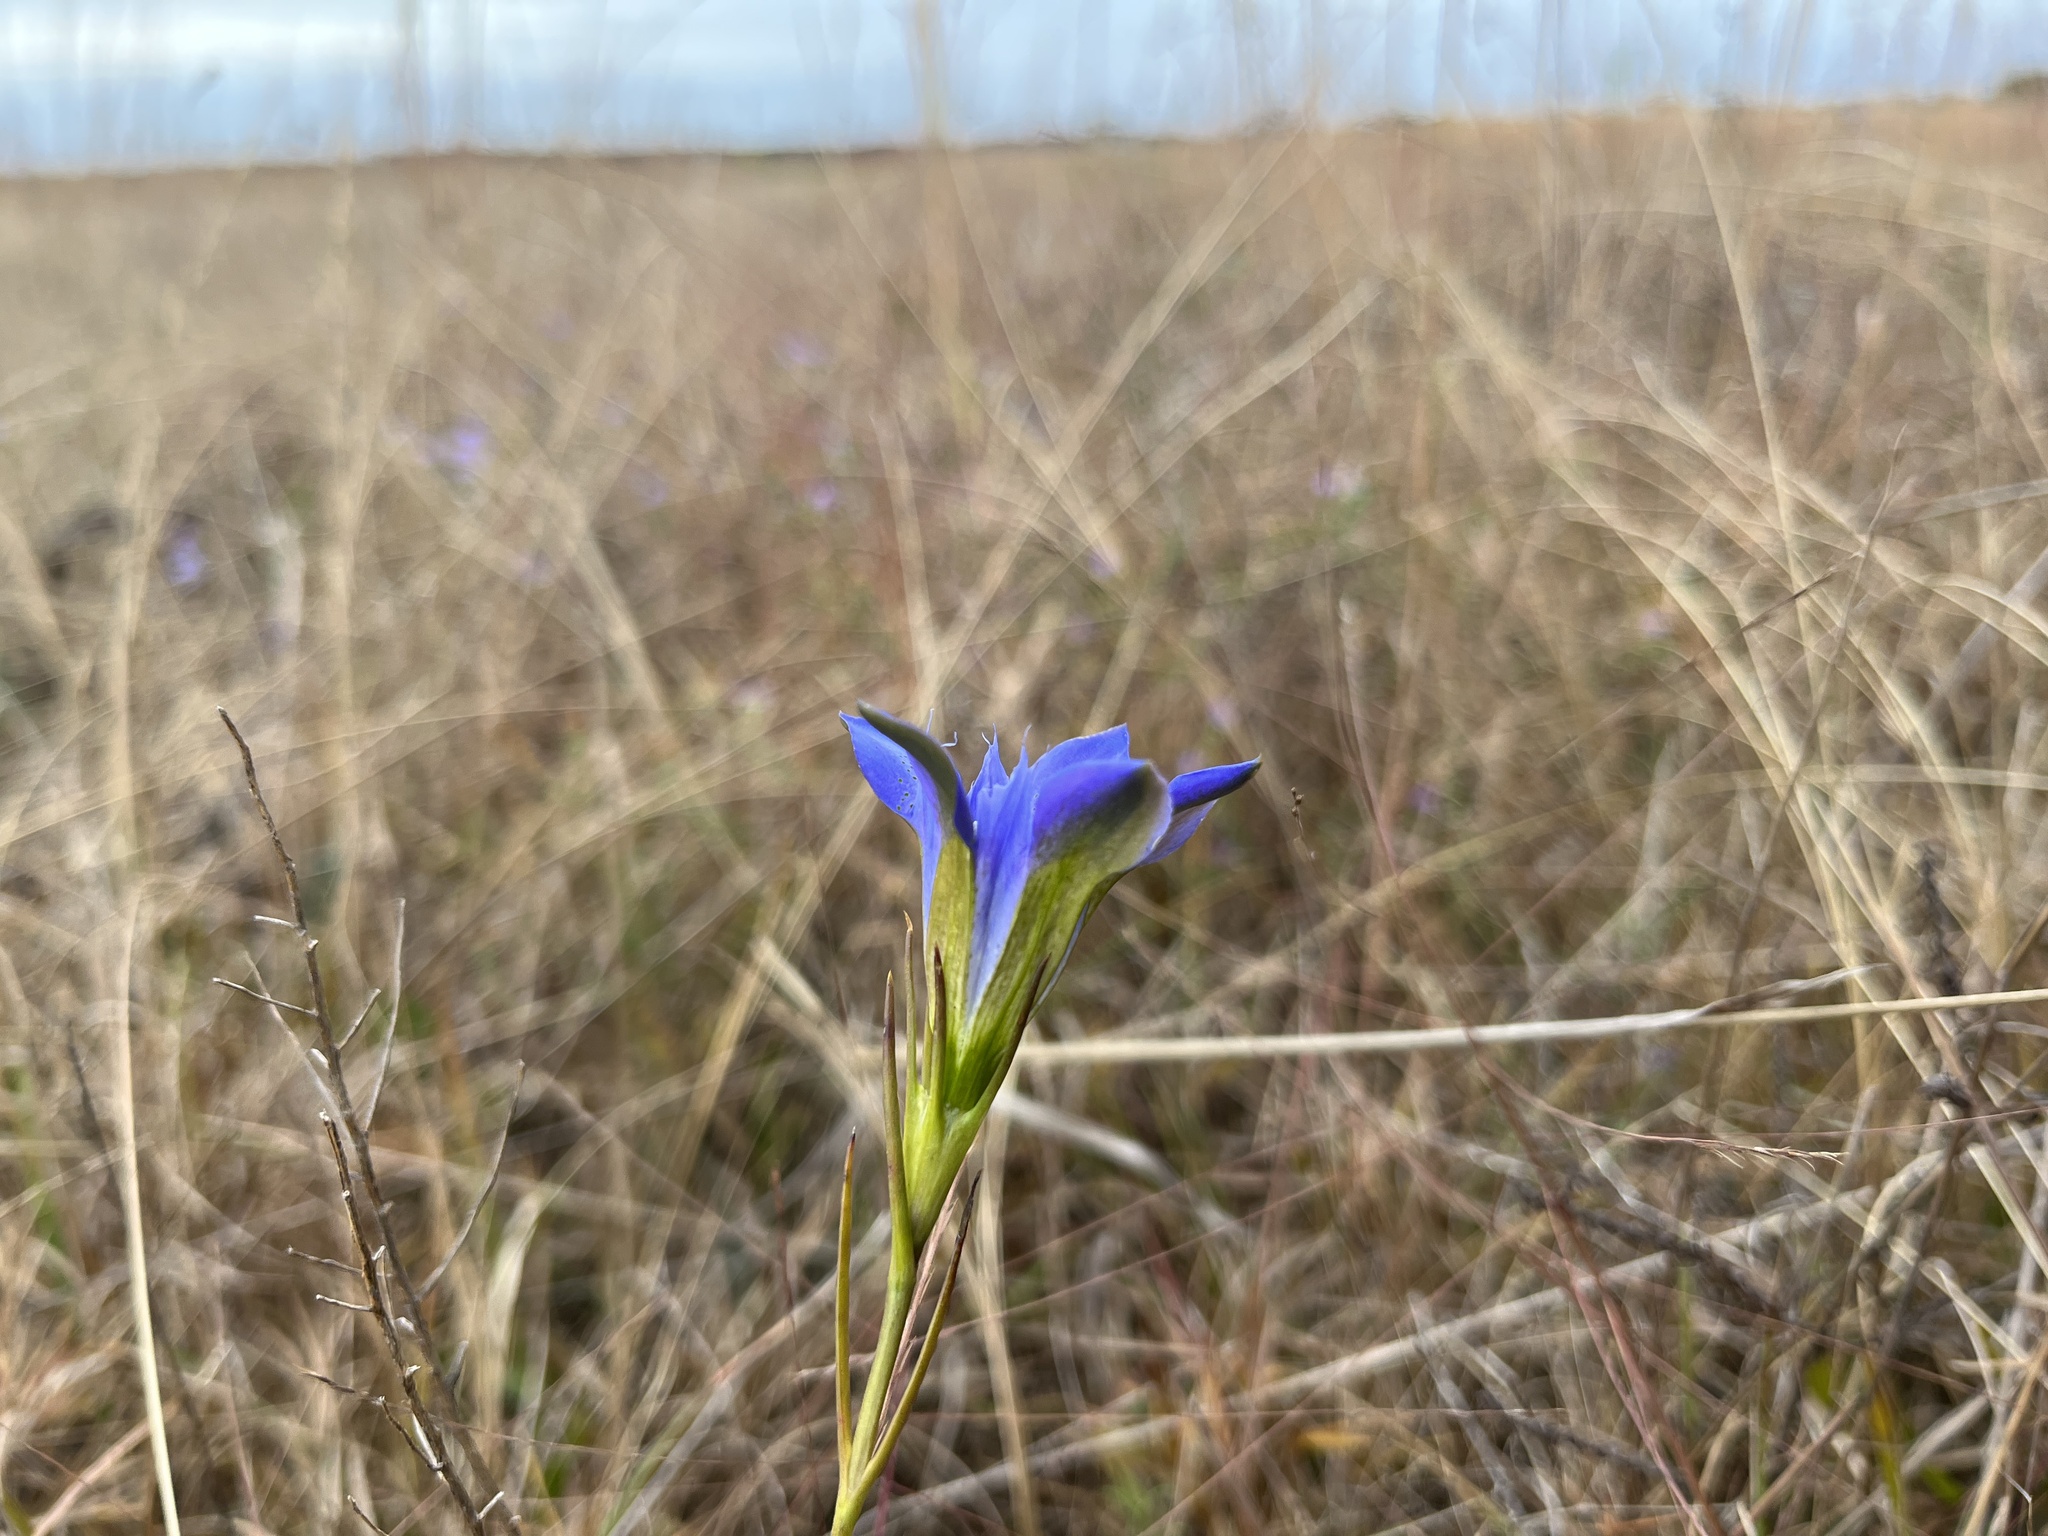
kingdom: Plantae
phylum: Tracheophyta
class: Magnoliopsida
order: Gentianales
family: Gentianaceae
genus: Gentiana
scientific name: Gentiana autumnalis
